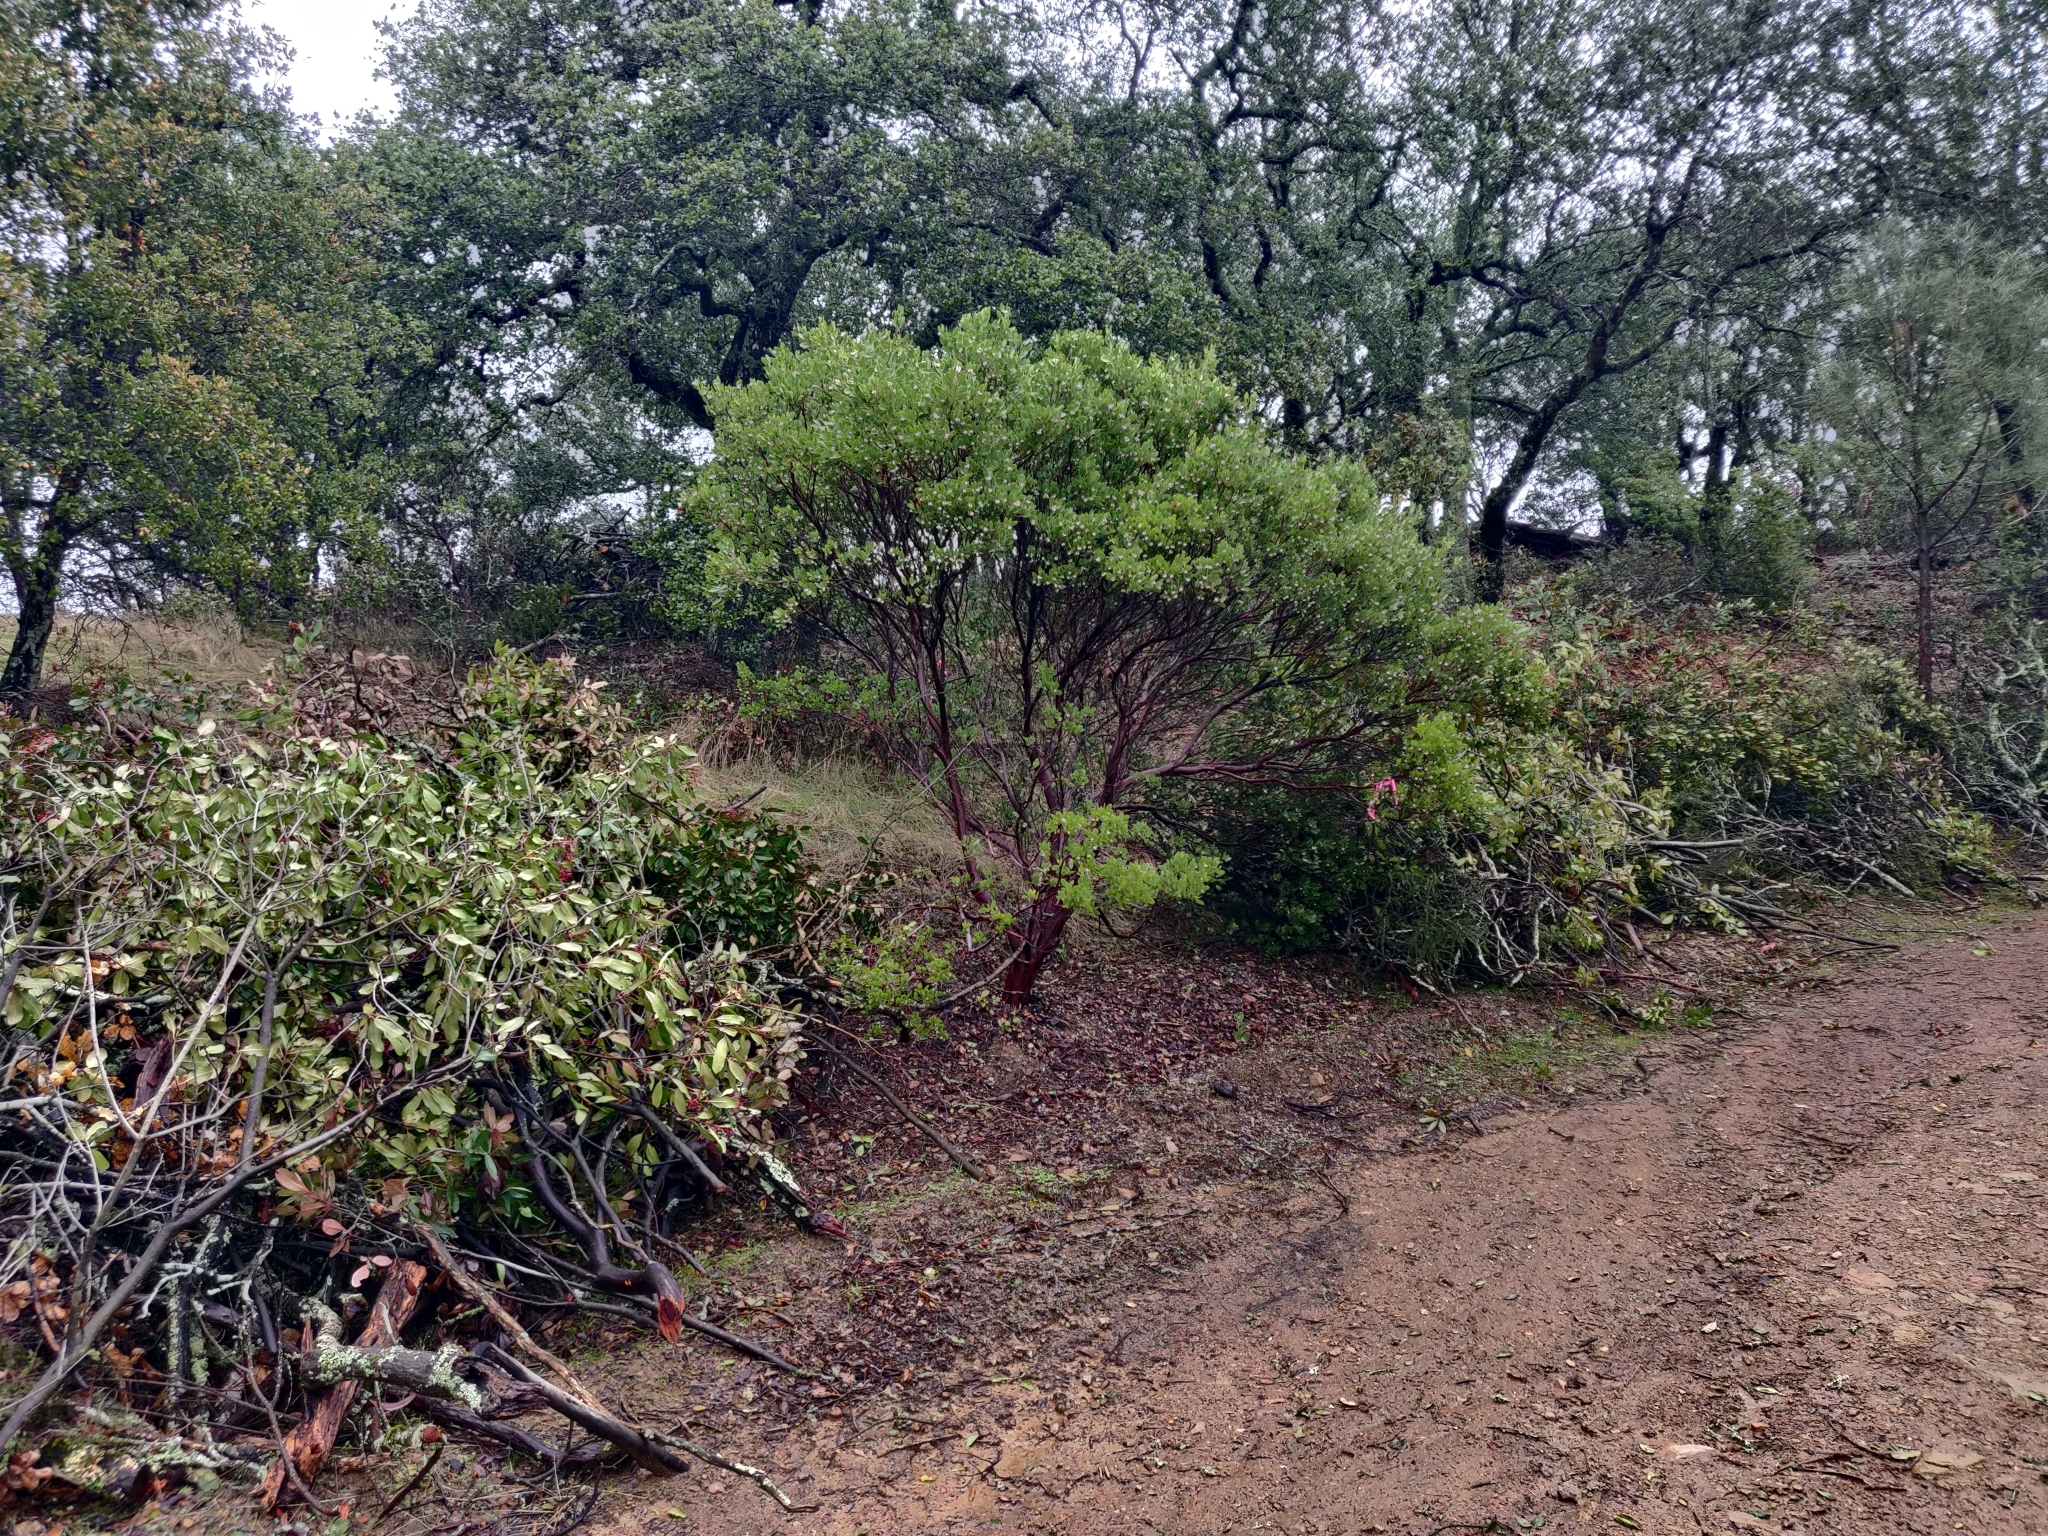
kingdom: Plantae
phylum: Tracheophyta
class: Magnoliopsida
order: Ericales
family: Ericaceae
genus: Arctostaphylos
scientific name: Arctostaphylos manzanita
